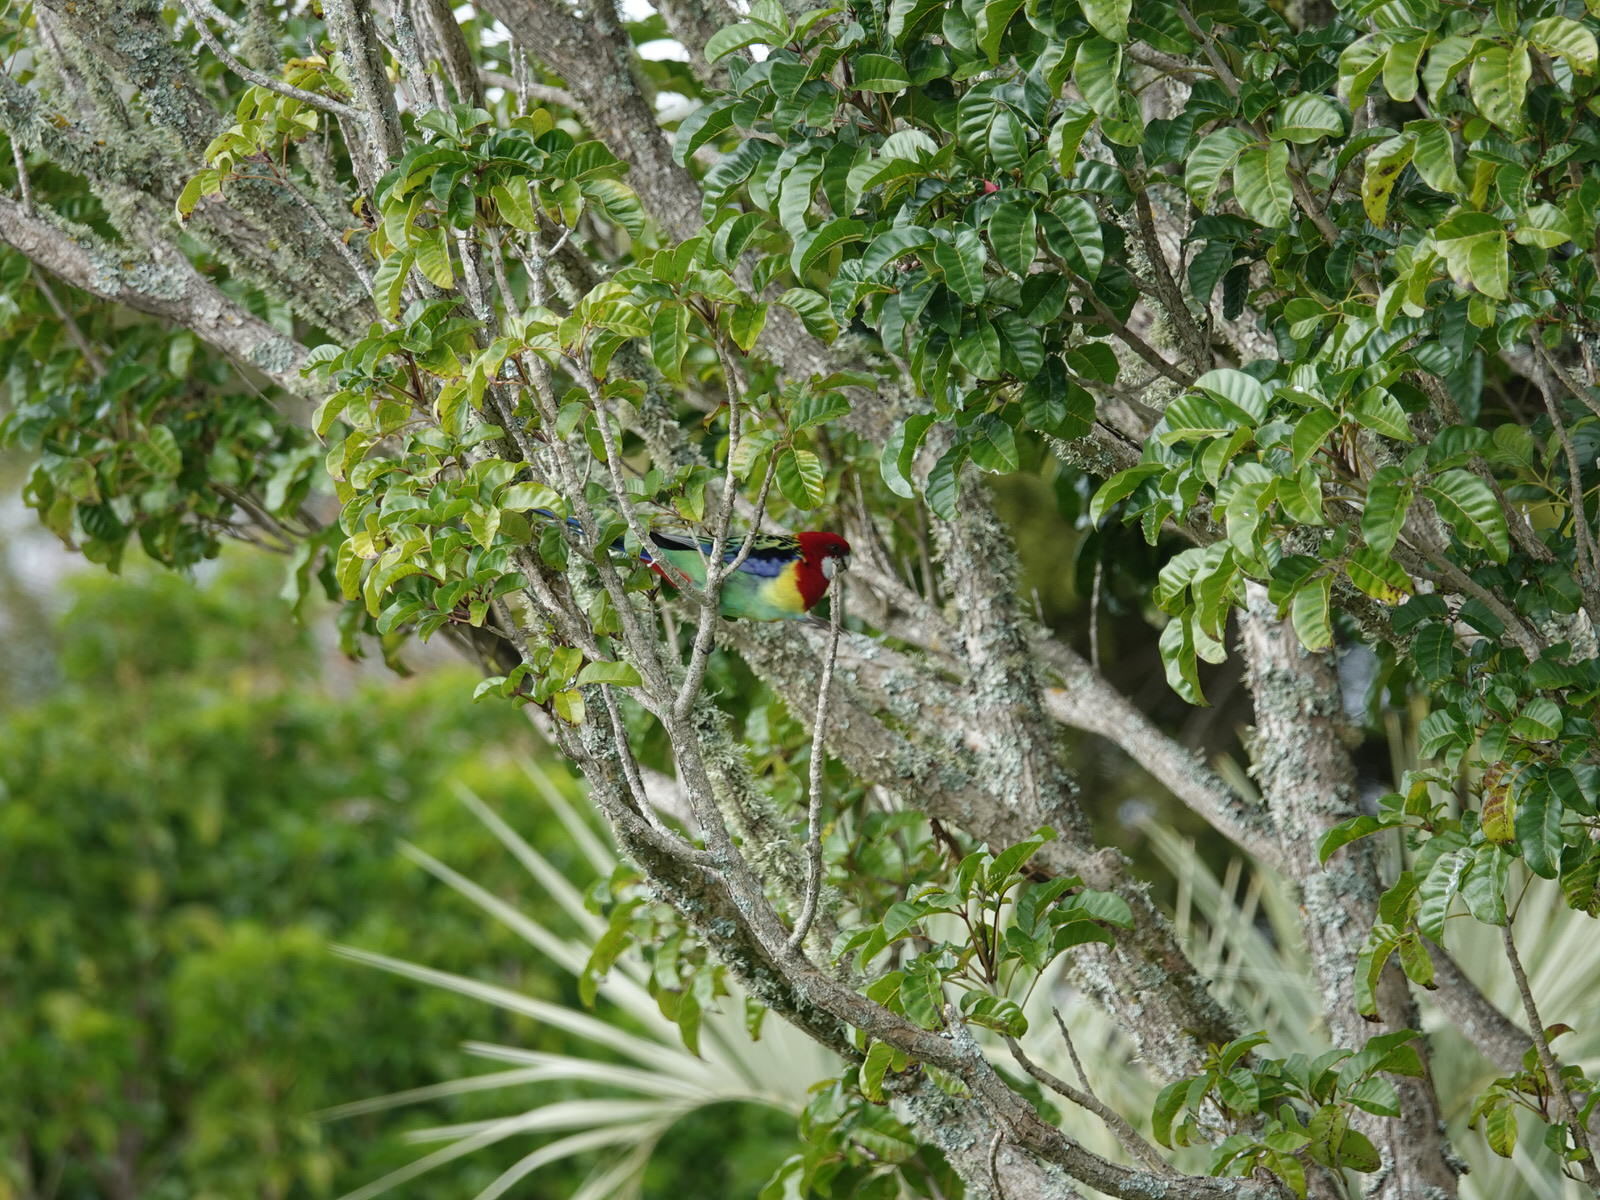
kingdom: Animalia
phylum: Chordata
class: Aves
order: Psittaciformes
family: Psittacidae
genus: Platycercus
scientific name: Platycercus eximius
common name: Eastern rosella
